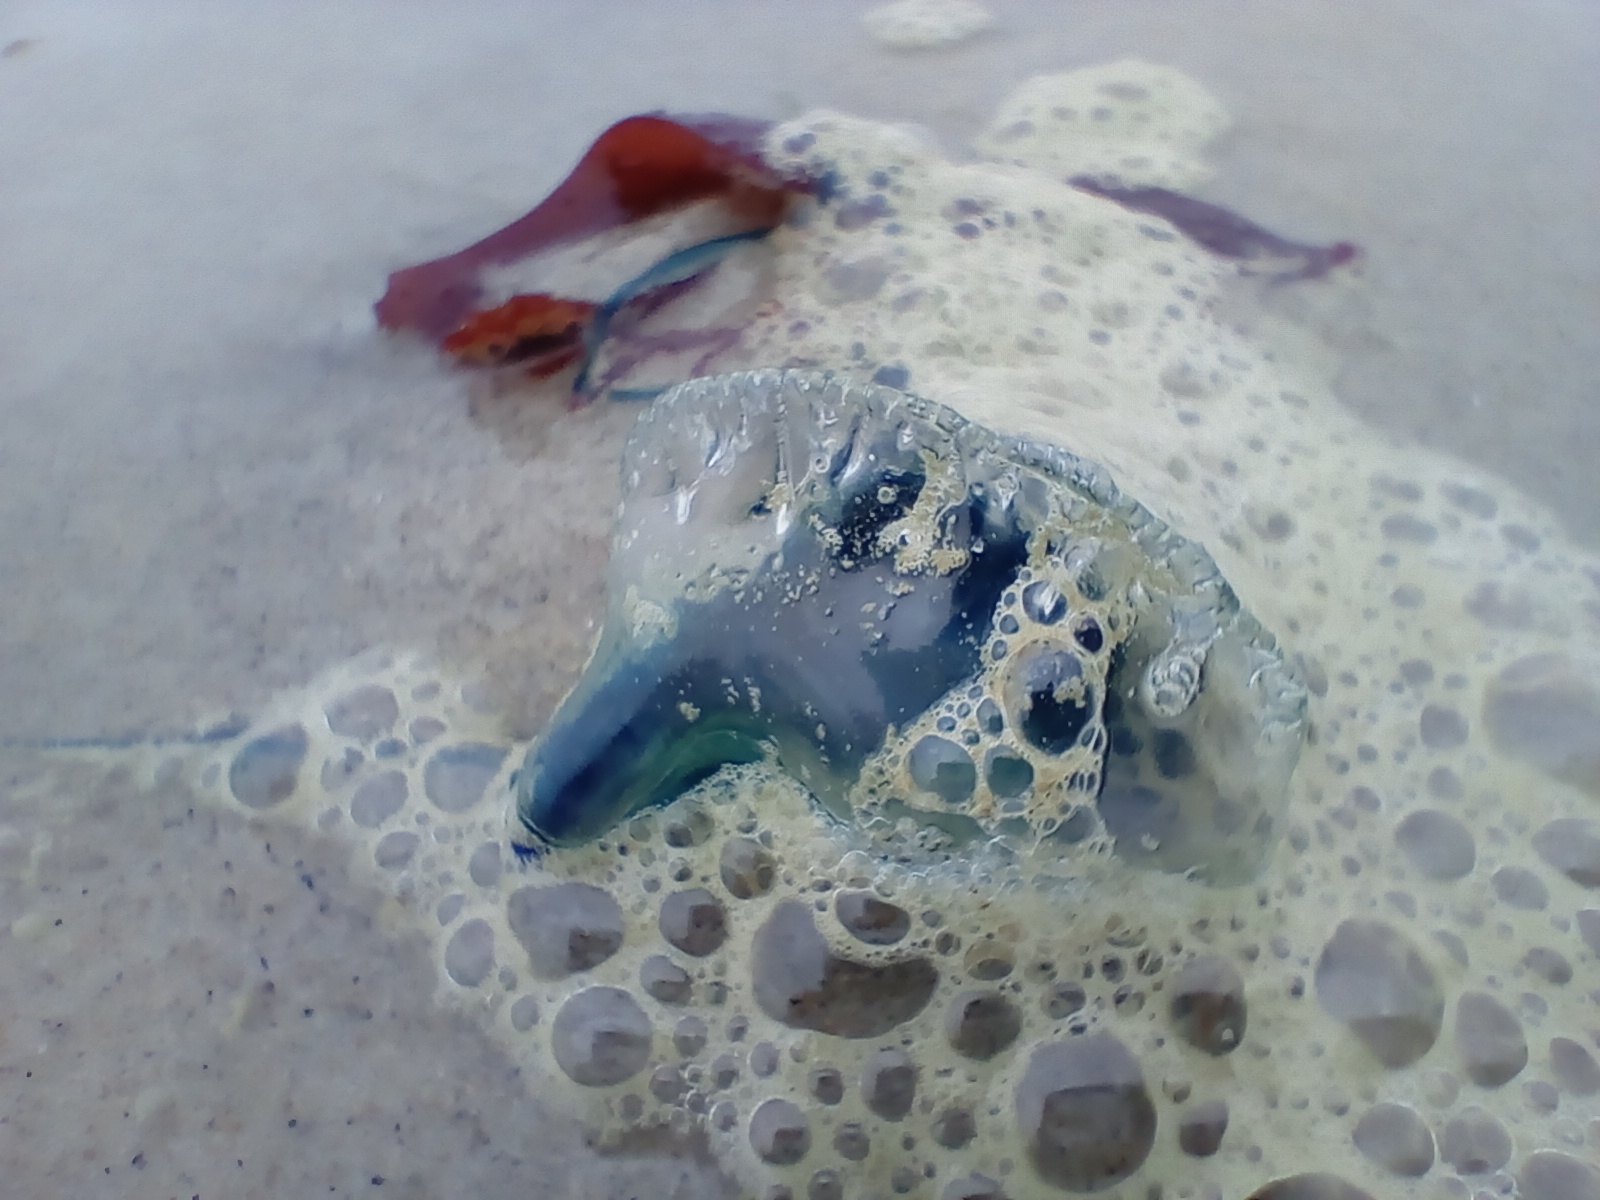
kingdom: Animalia
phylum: Cnidaria
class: Hydrozoa
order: Siphonophorae
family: Physaliidae
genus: Physalia
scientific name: Physalia physalis
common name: Portuguese man-of-war
